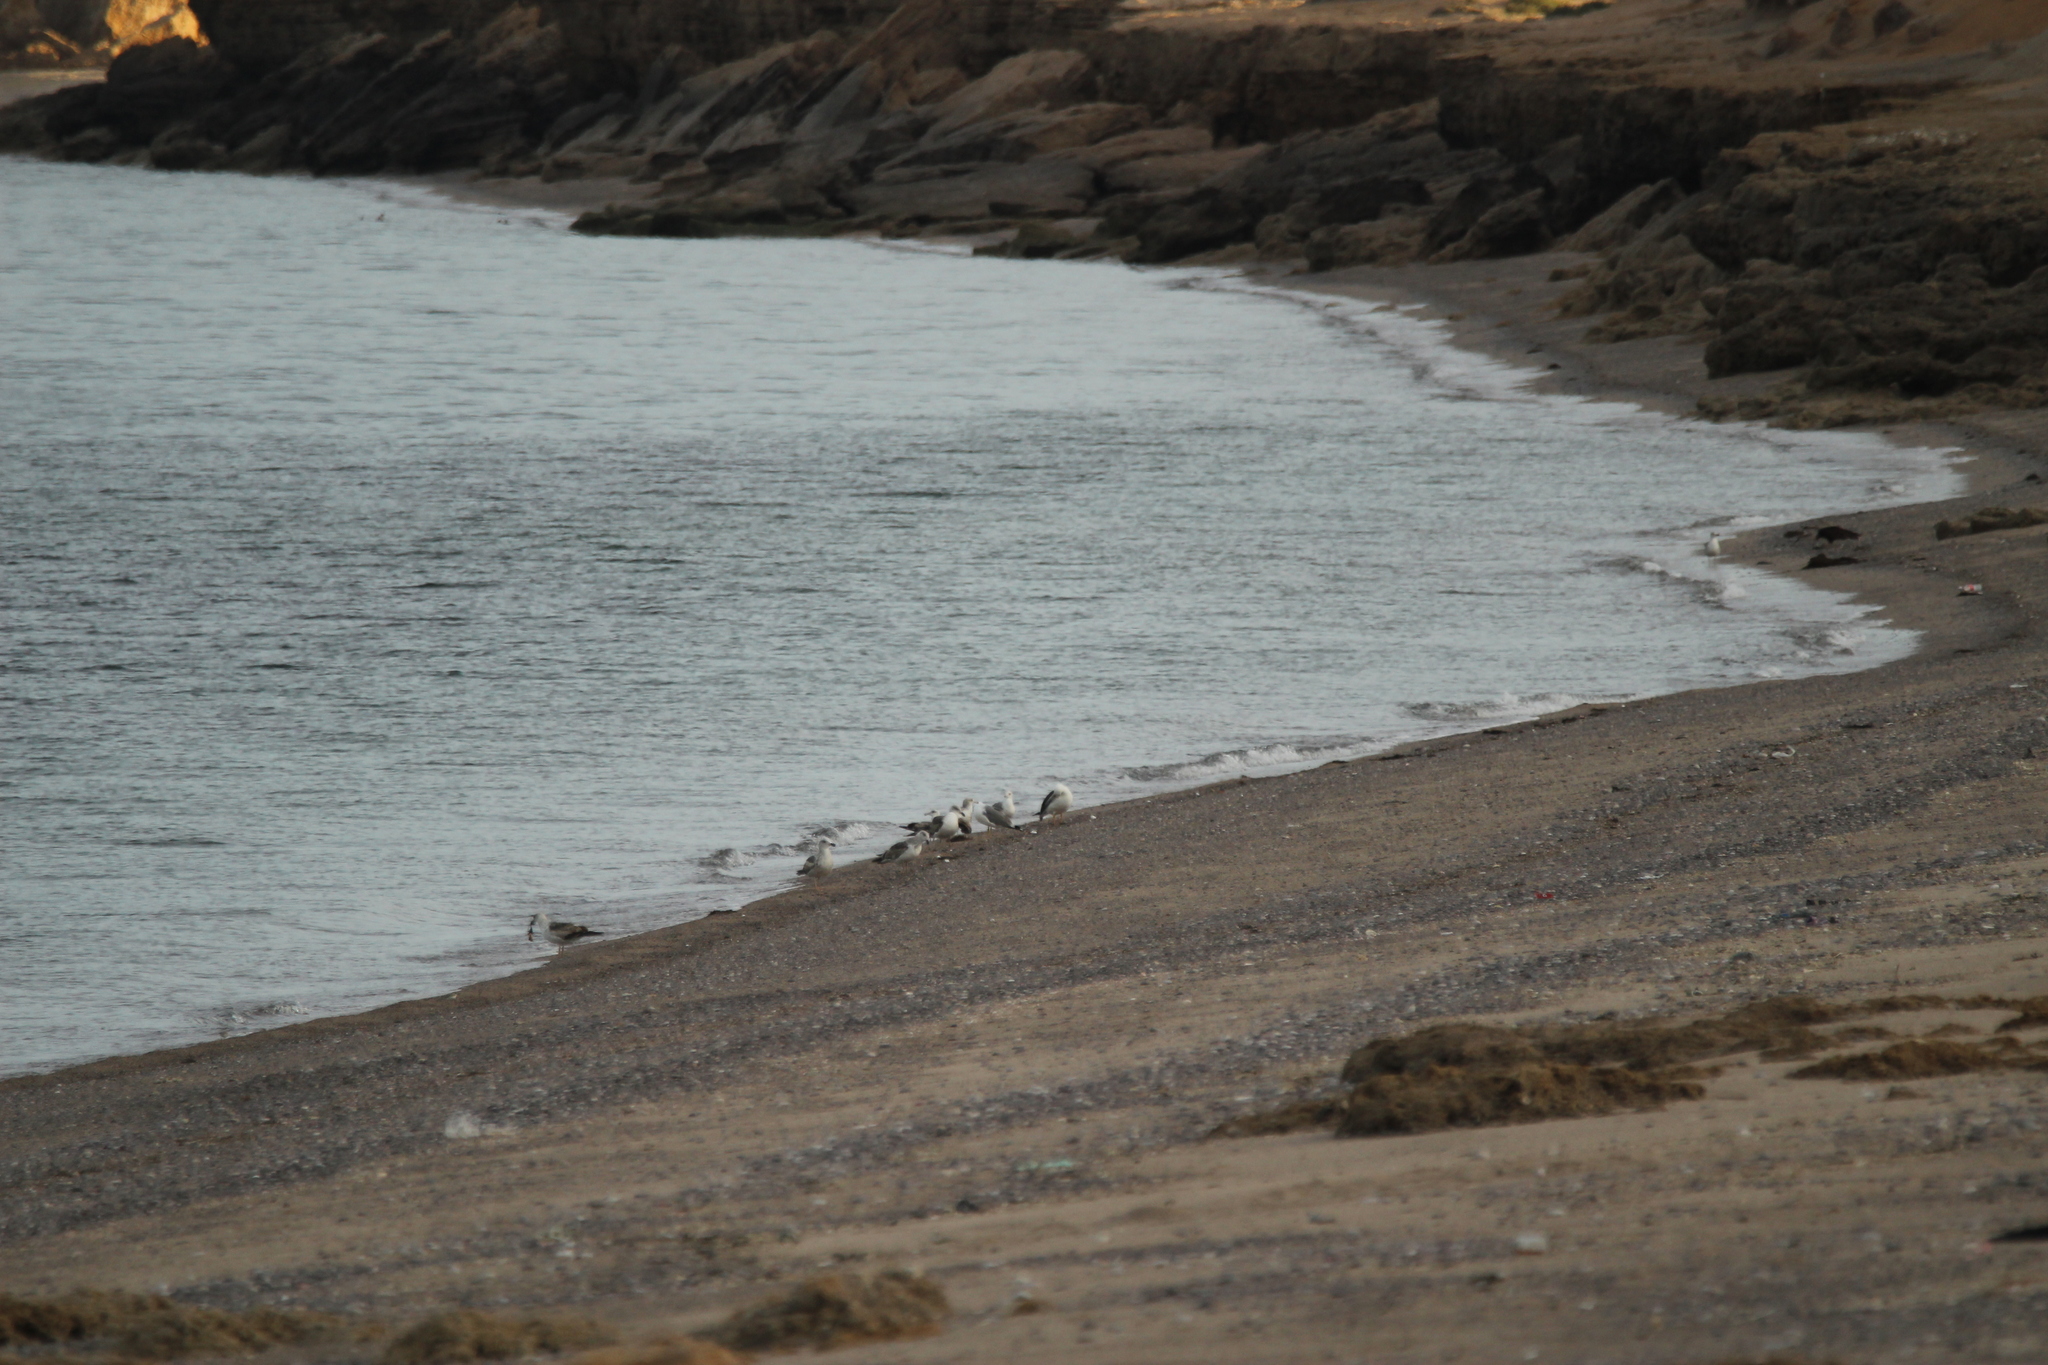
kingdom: Animalia
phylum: Chordata
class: Aves
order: Charadriiformes
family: Laridae
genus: Larus
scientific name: Larus livens
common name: Yellow-footed gull
